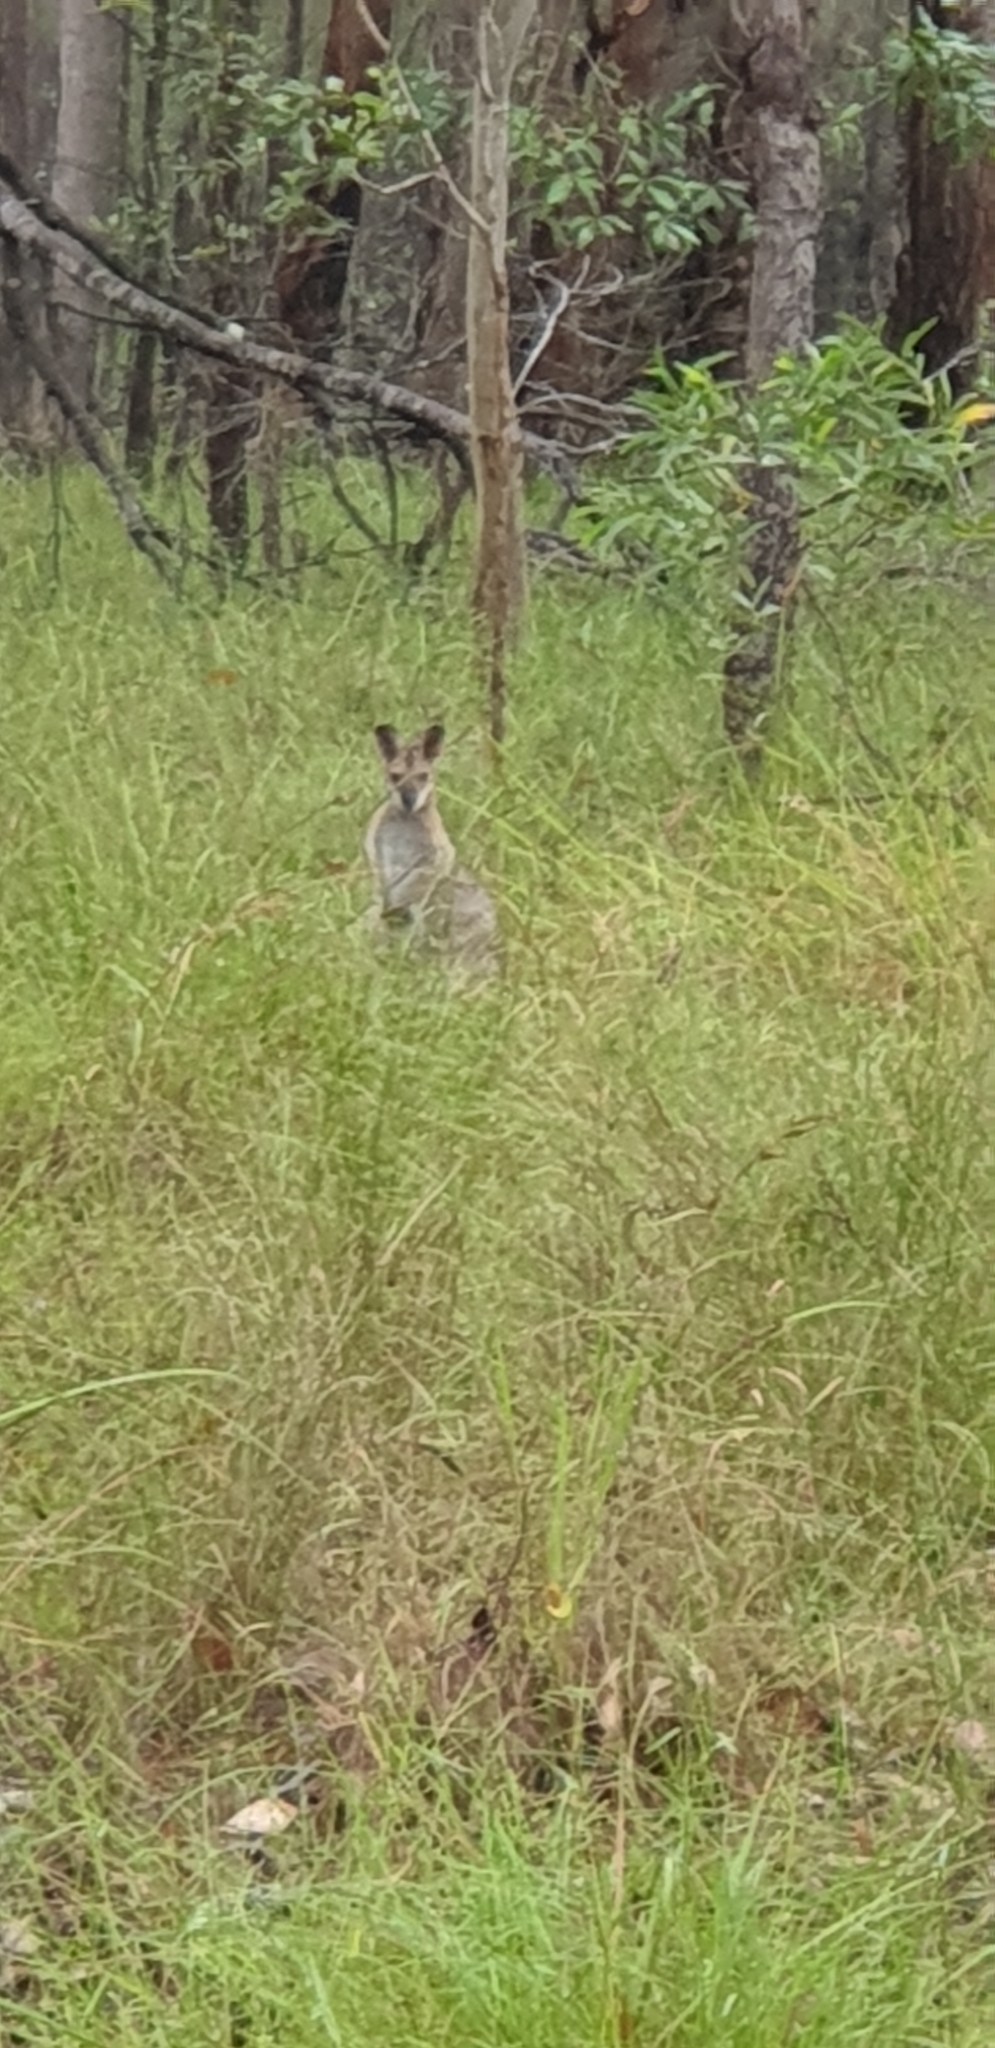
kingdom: Animalia
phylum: Chordata
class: Mammalia
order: Diprotodontia
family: Macropodidae
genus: Notamacropus
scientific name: Notamacropus rufogriseus
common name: Red-necked wallaby
